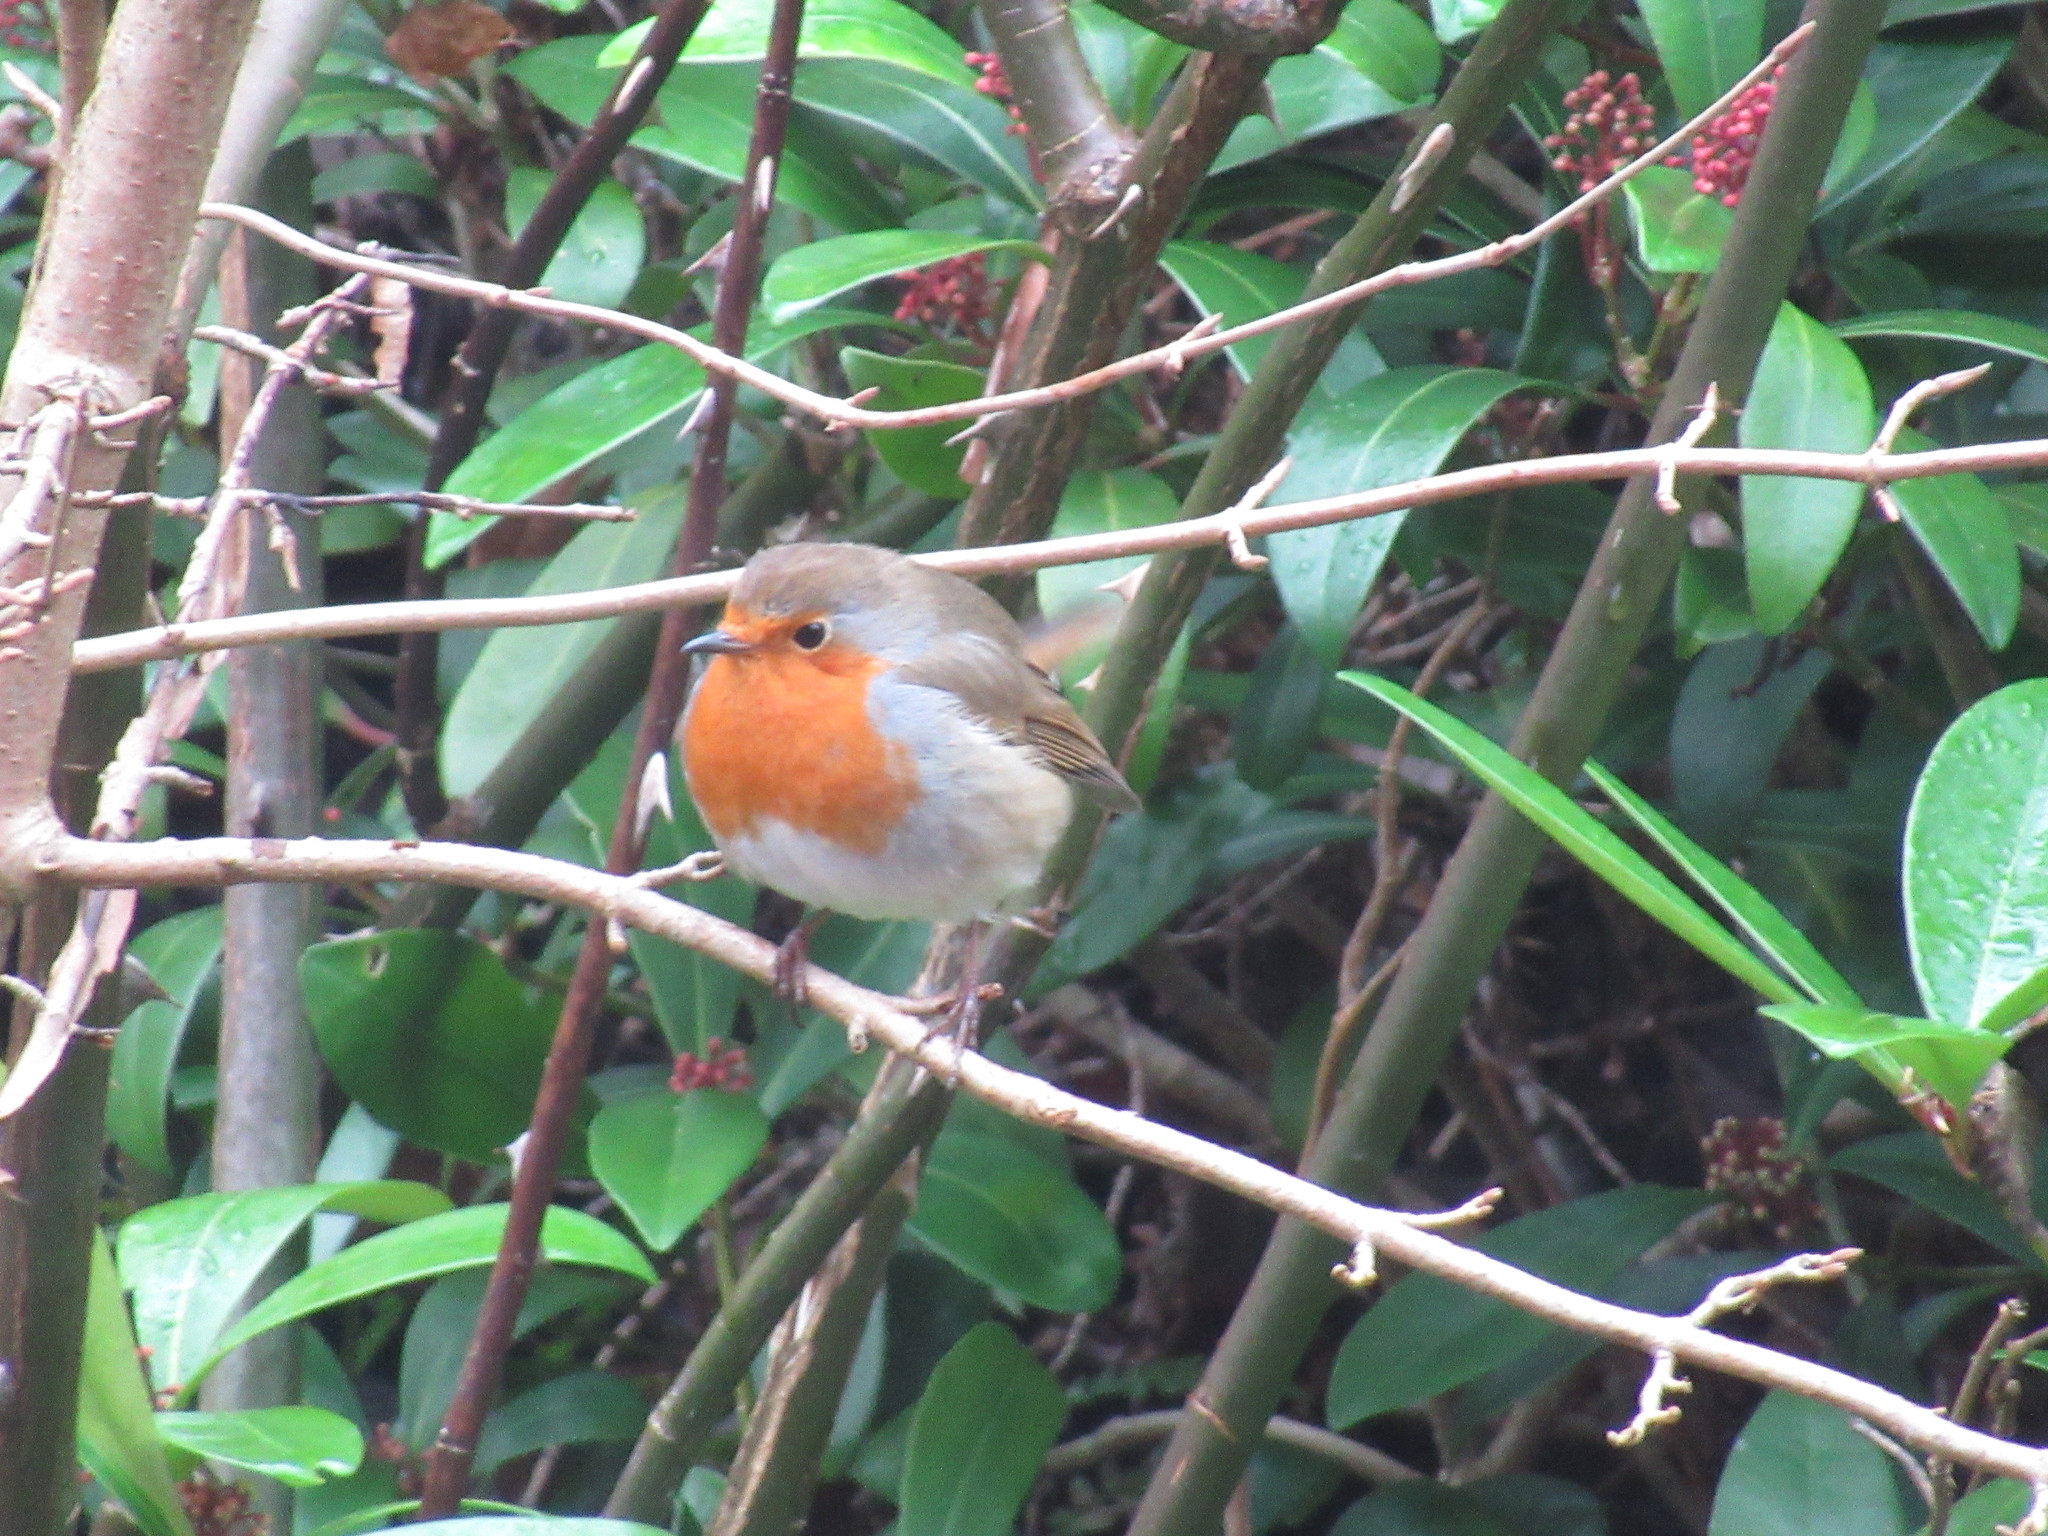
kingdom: Animalia
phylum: Chordata
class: Aves
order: Passeriformes
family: Muscicapidae
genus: Erithacus
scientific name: Erithacus rubecula
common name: European robin
